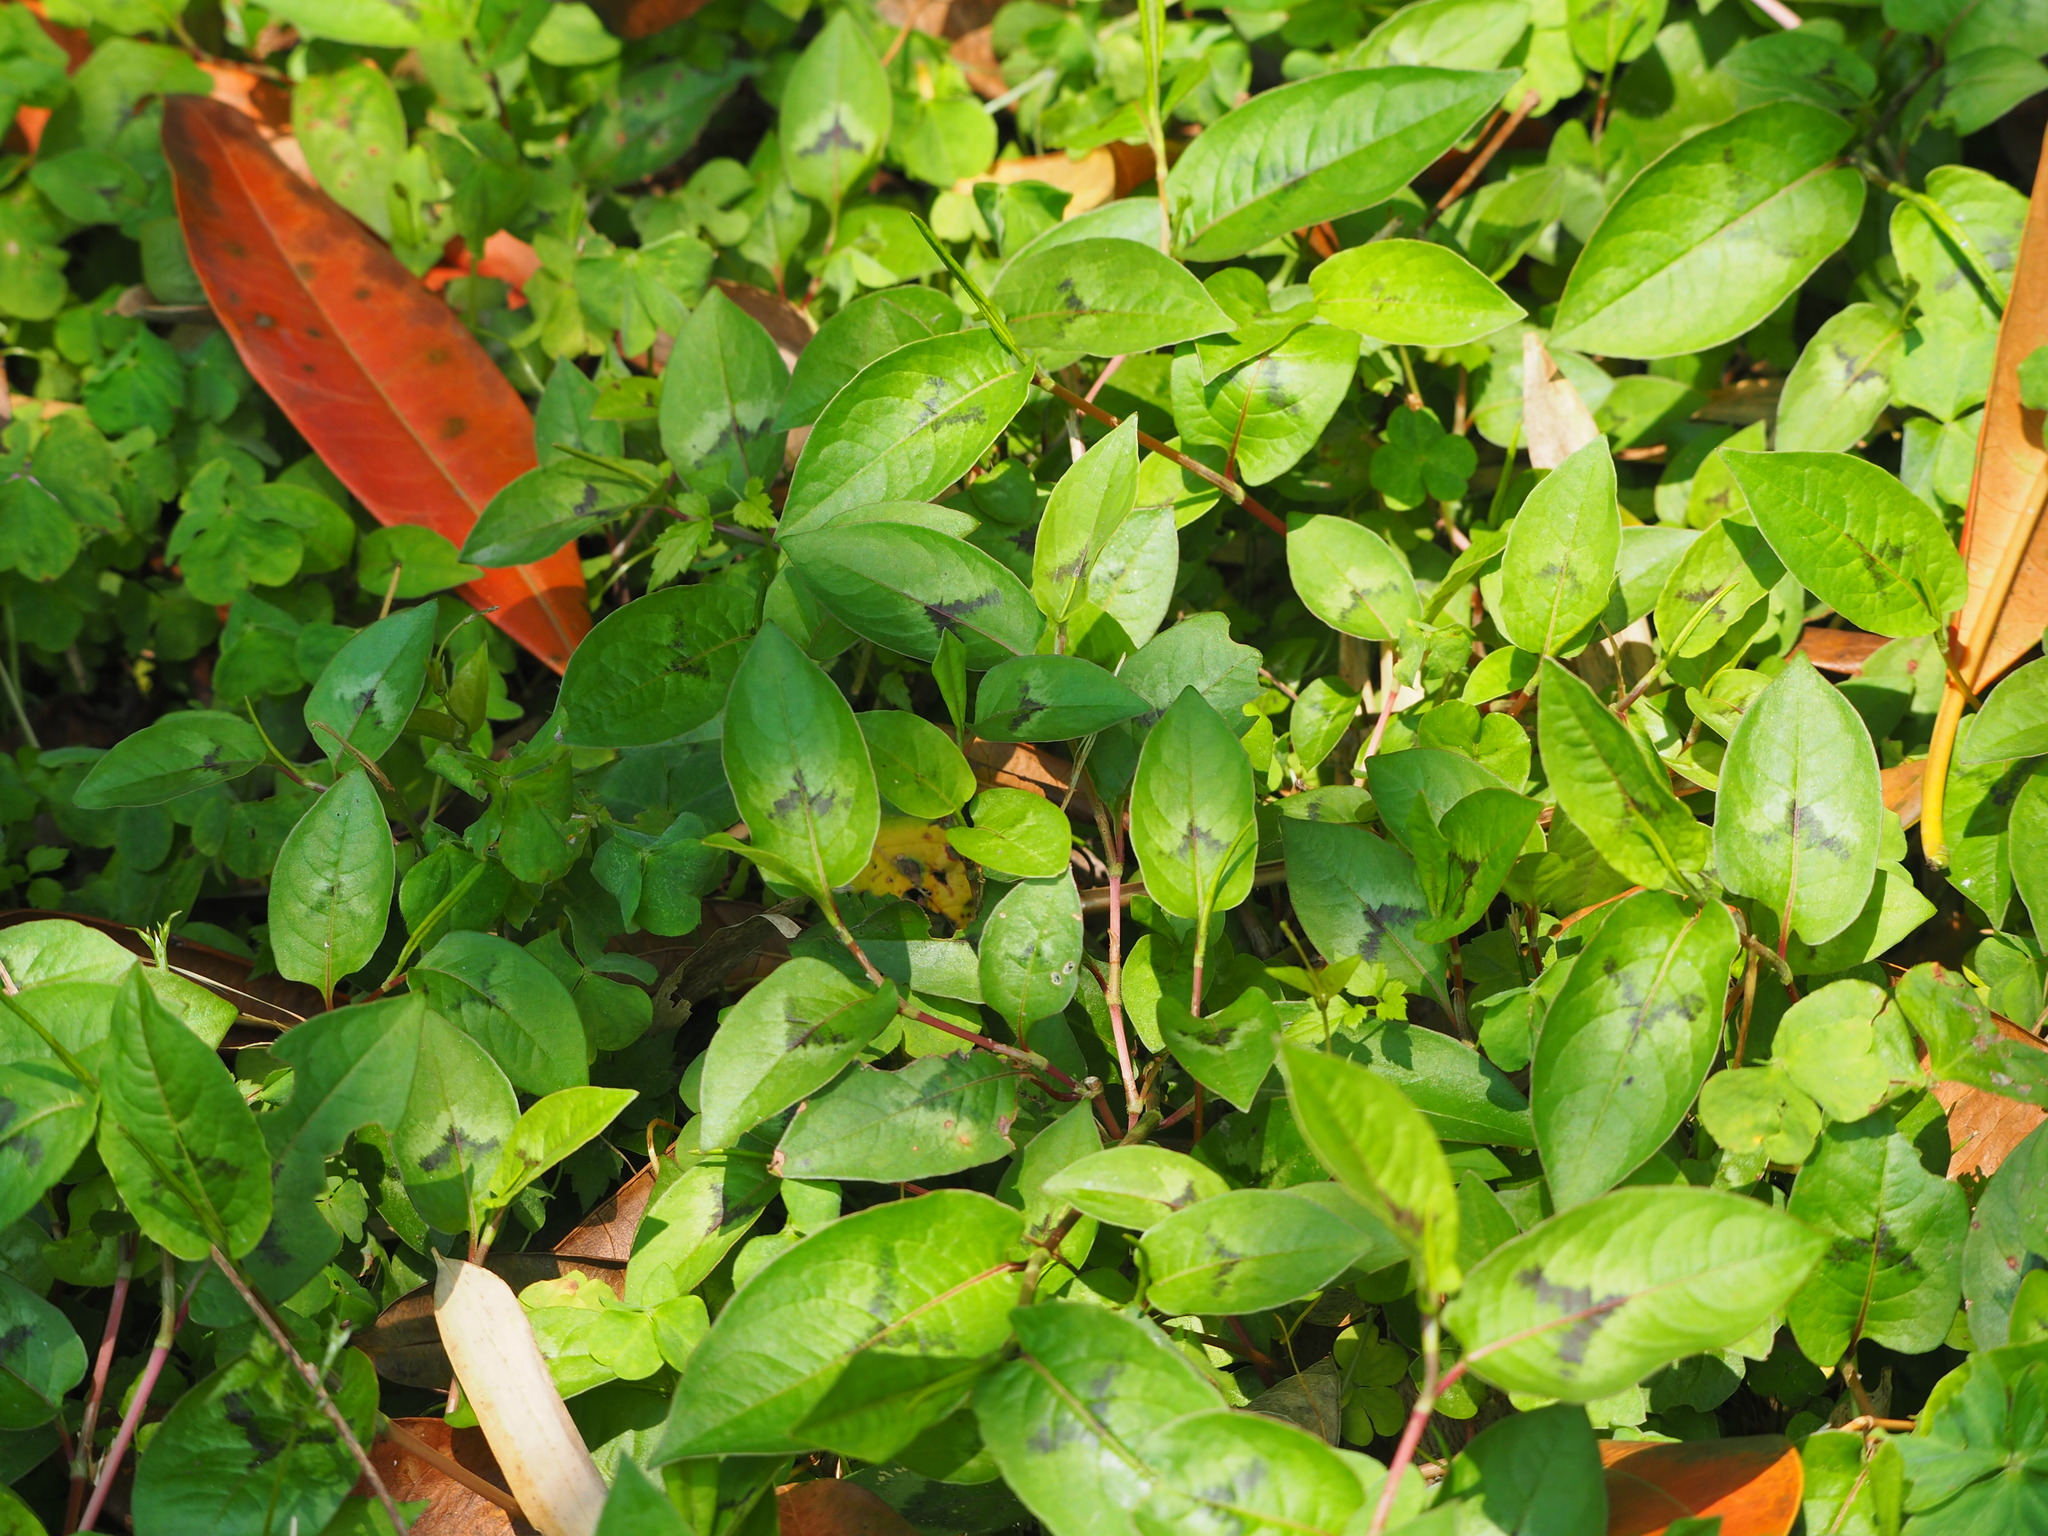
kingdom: Plantae
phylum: Tracheophyta
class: Magnoliopsida
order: Caryophyllales
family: Polygonaceae
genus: Persicaria
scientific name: Persicaria chinensis
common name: Chinese knotweed
